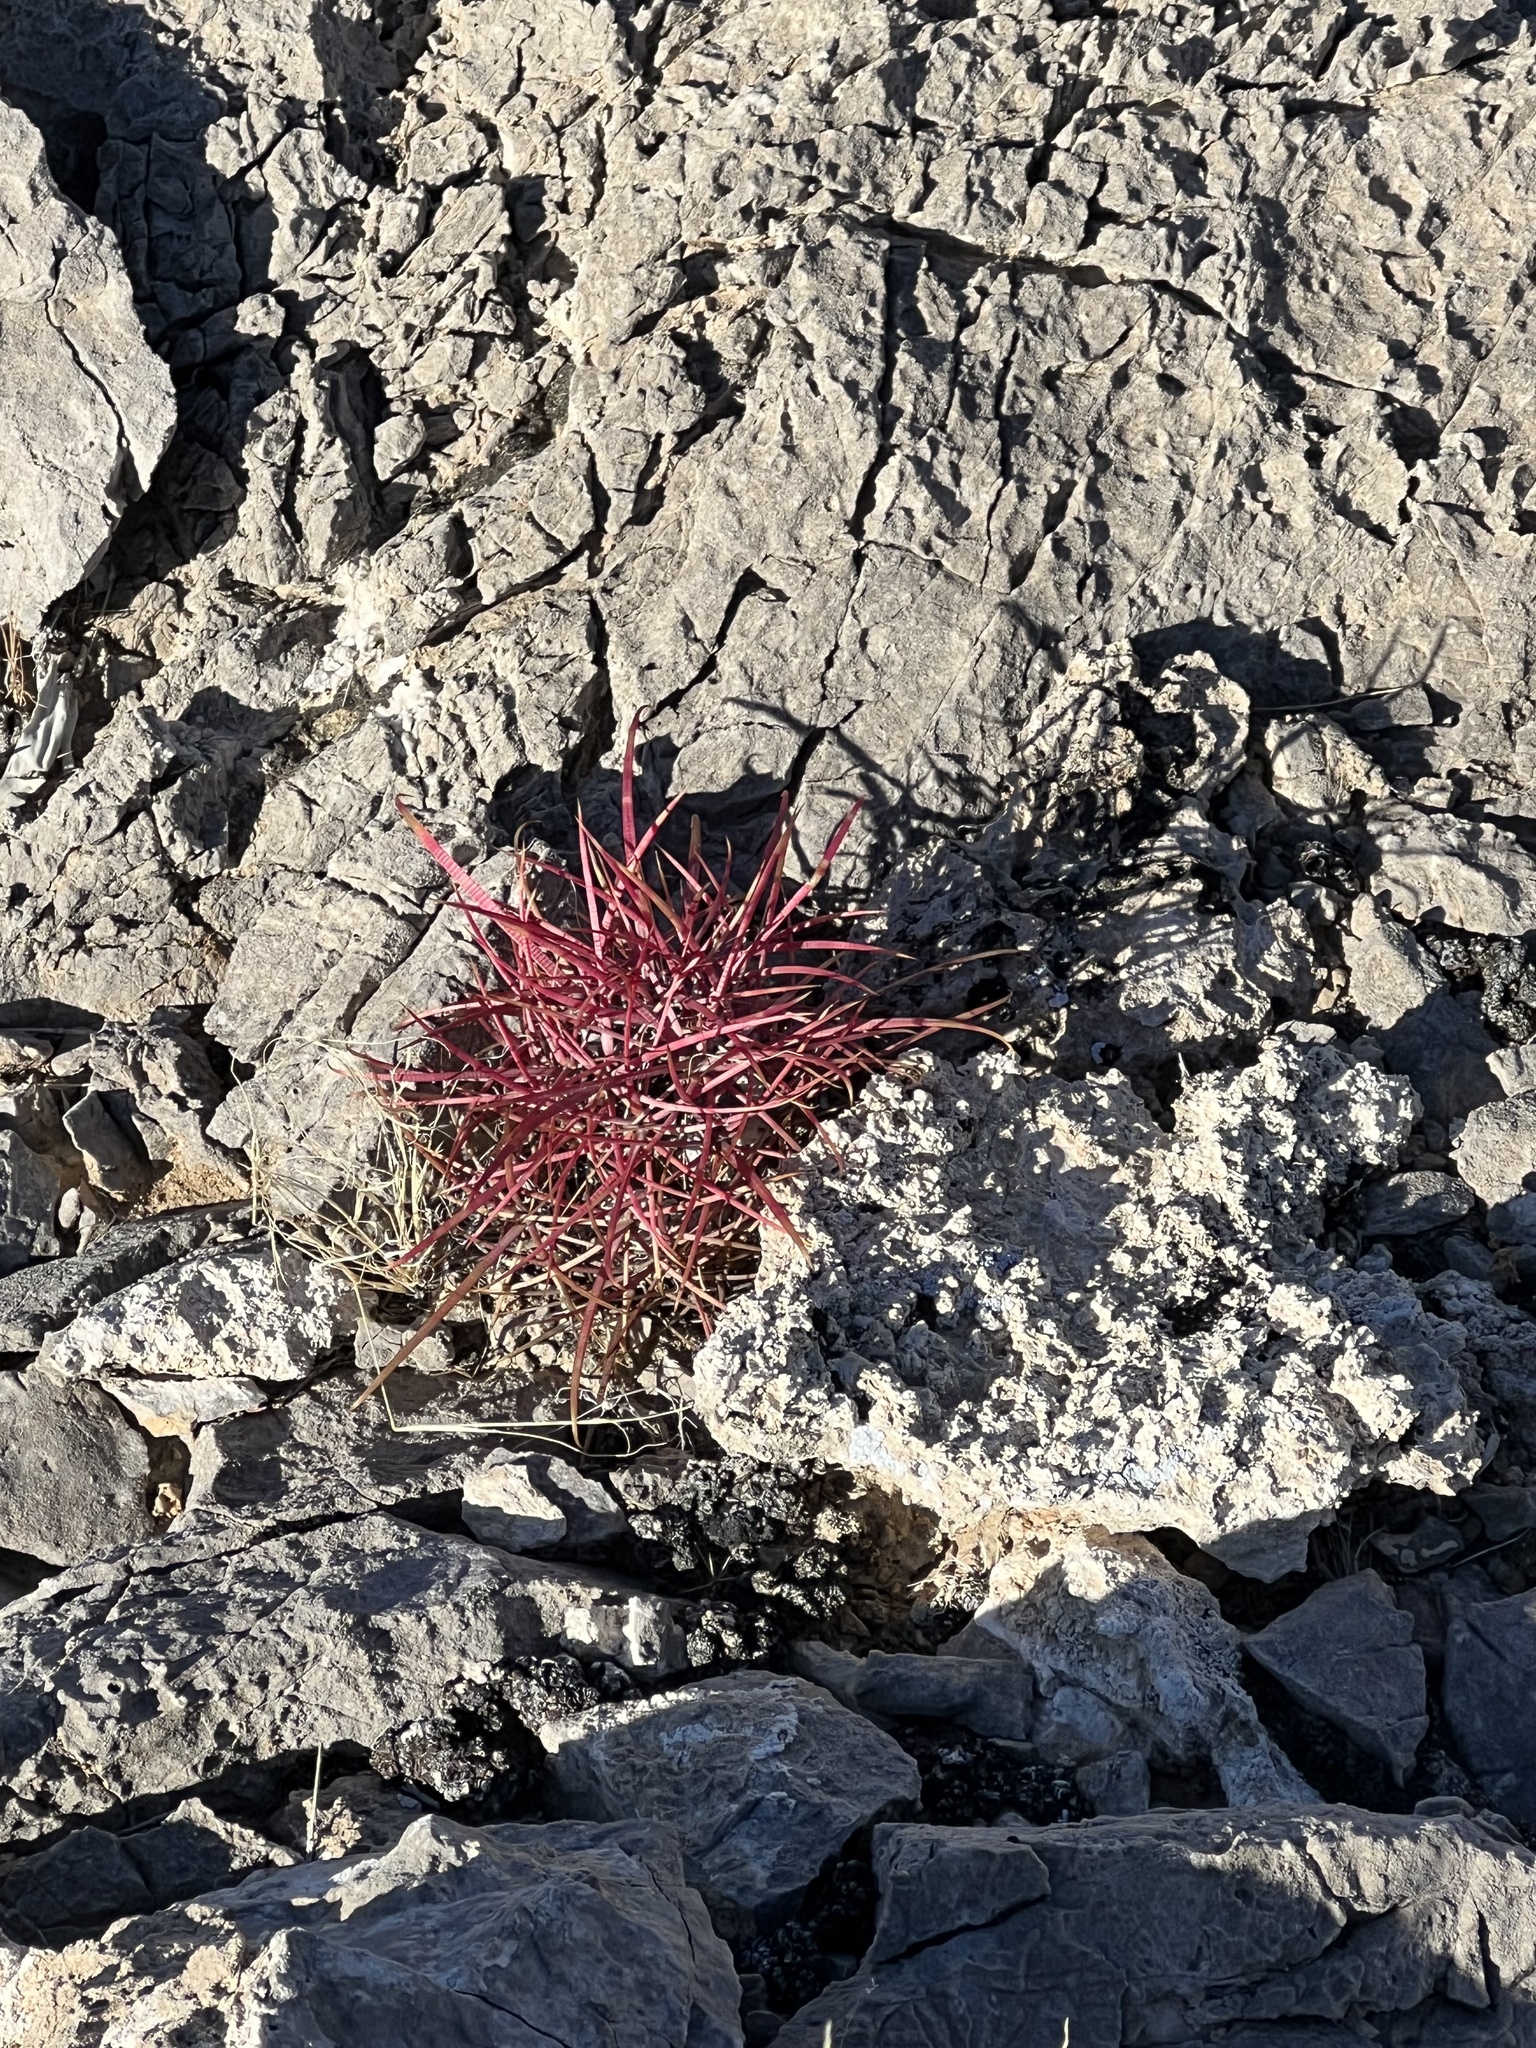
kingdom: Plantae
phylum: Tracheophyta
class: Magnoliopsida
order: Caryophyllales
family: Cactaceae
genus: Ferocactus
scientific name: Ferocactus cylindraceus
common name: California barrel cactus
